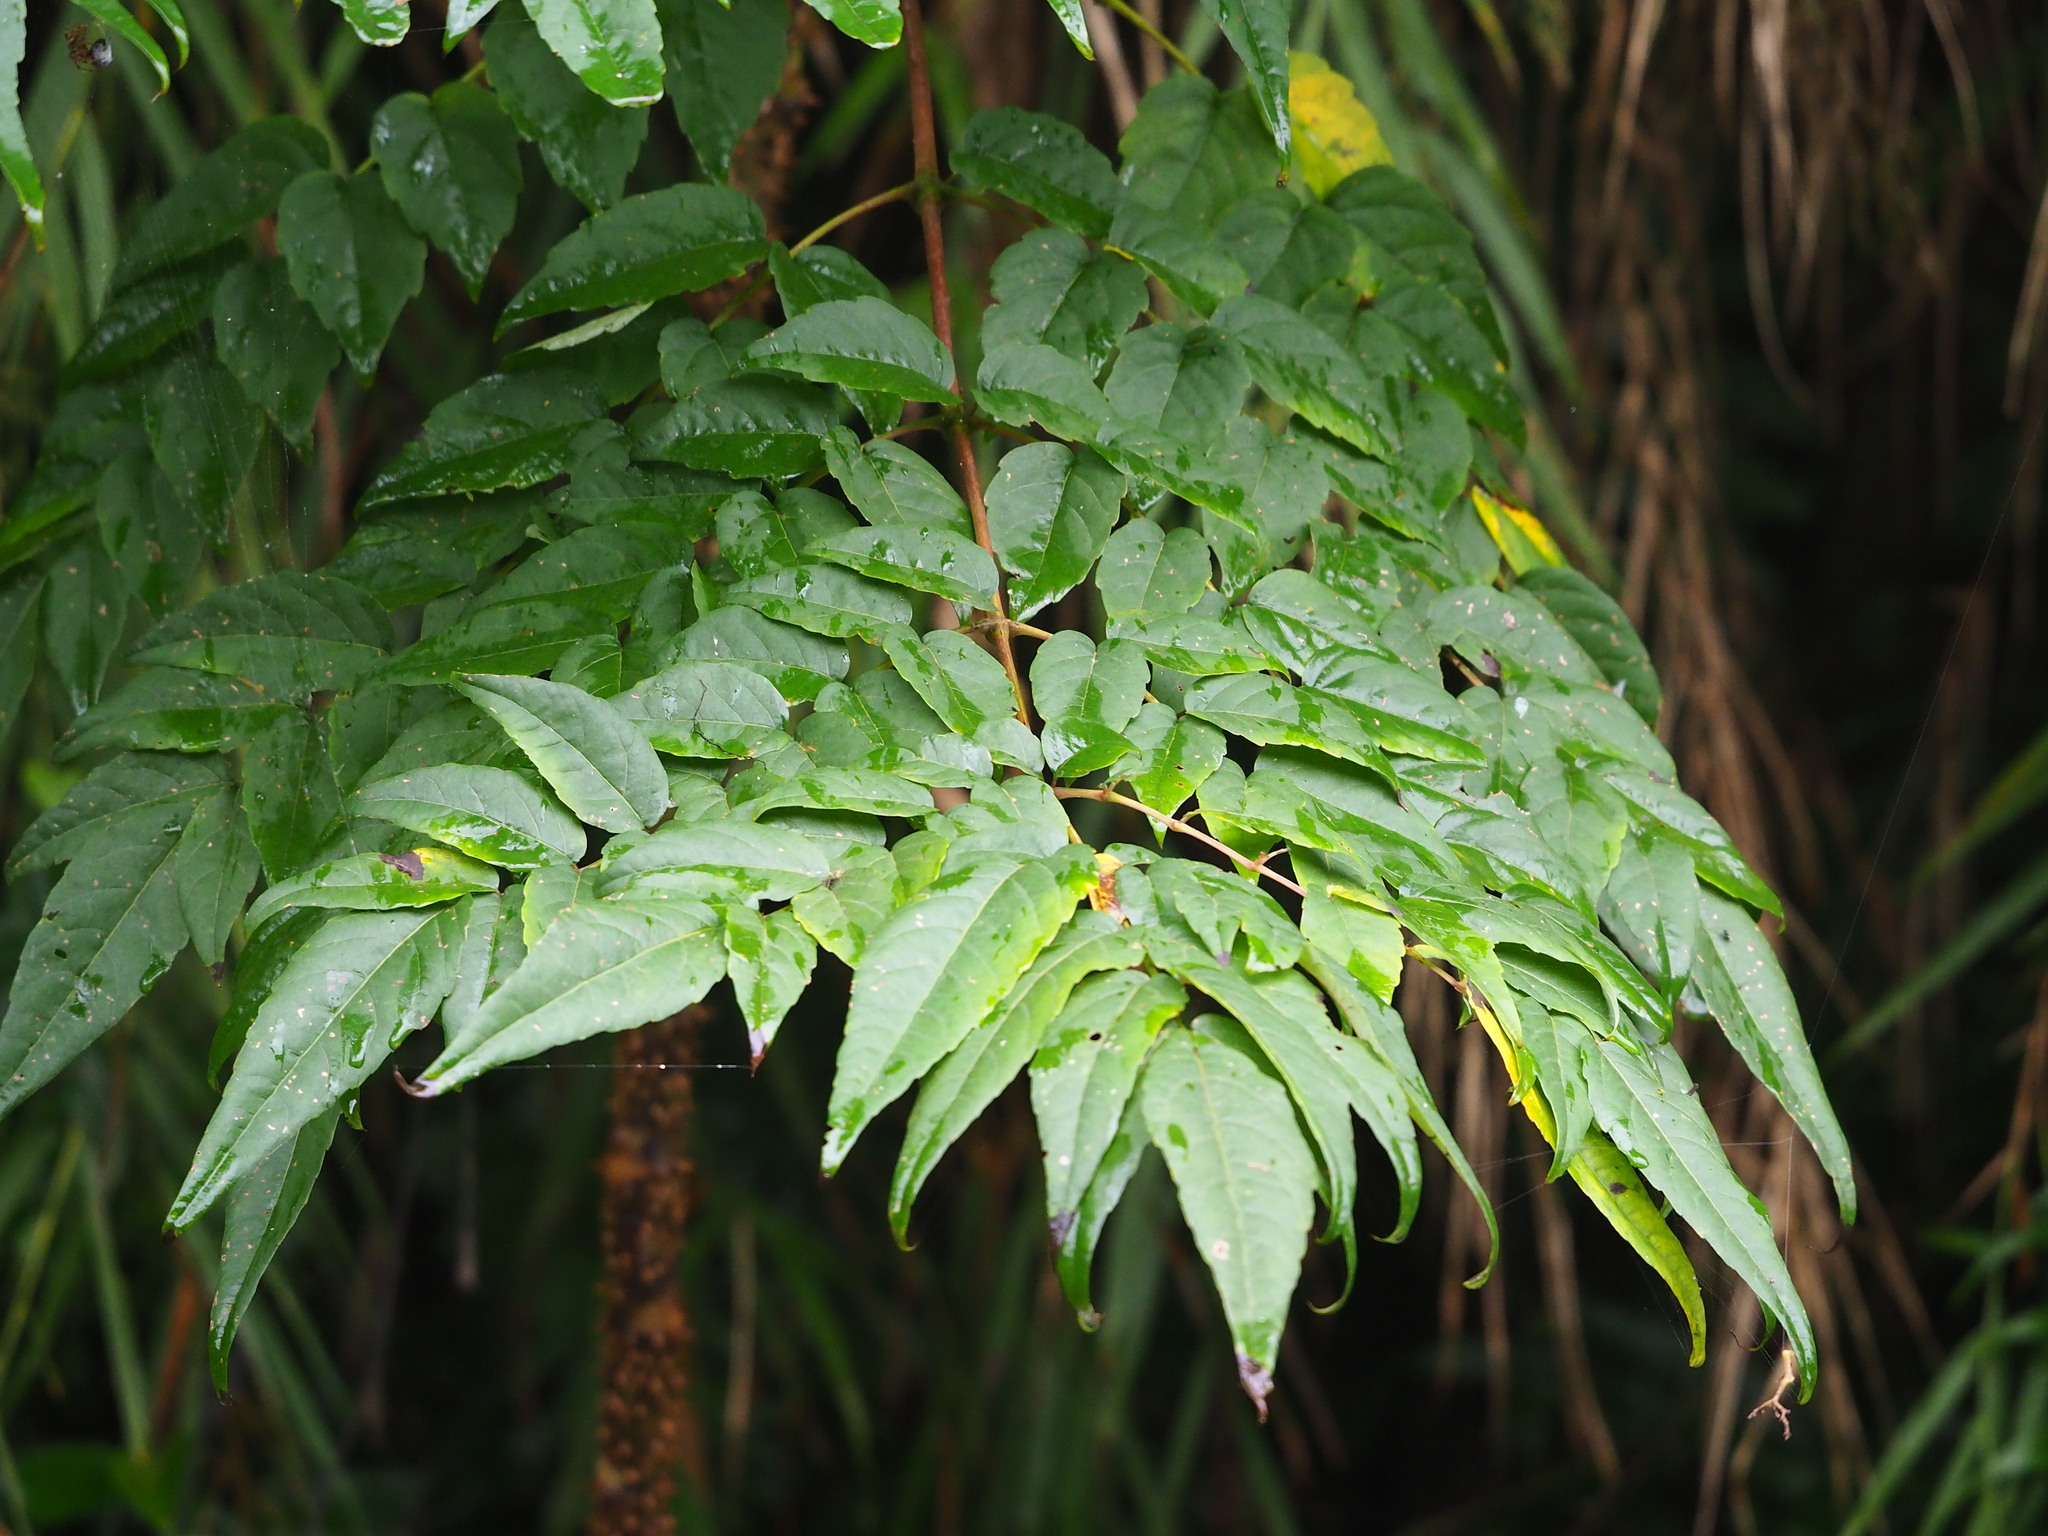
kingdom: Plantae
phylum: Tracheophyta
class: Magnoliopsida
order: Apiales
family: Araliaceae
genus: Aralia
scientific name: Aralia bipinnata
